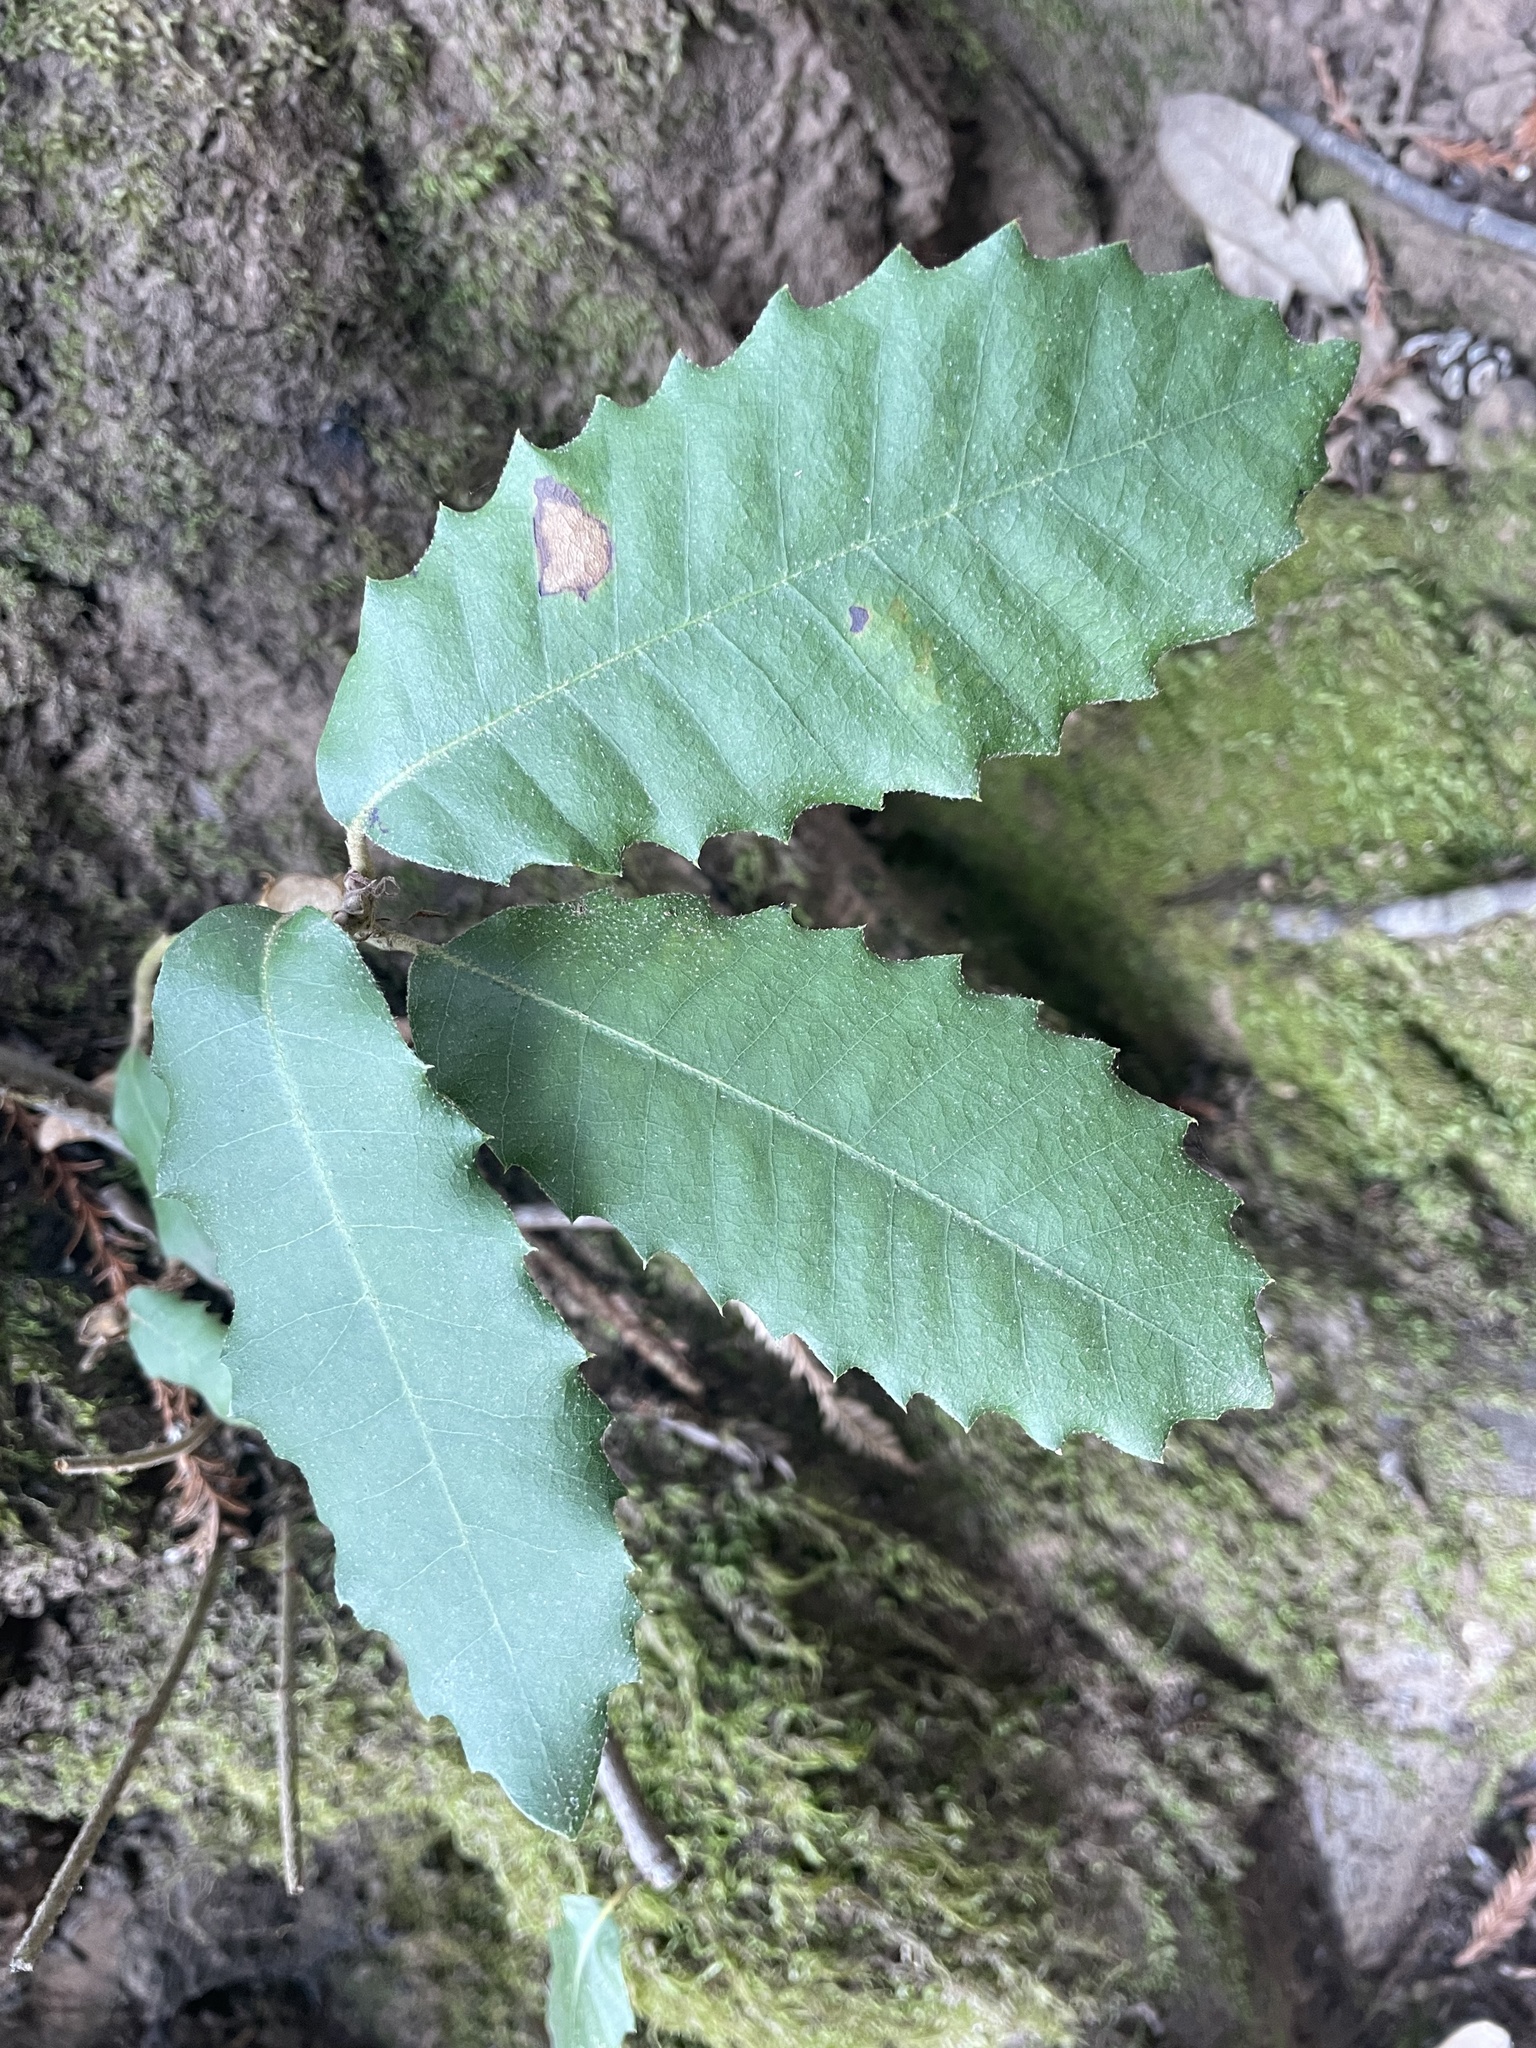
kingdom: Plantae
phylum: Tracheophyta
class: Magnoliopsida
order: Fagales
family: Fagaceae
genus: Notholithocarpus
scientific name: Notholithocarpus densiflorus
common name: Tan bark oak
